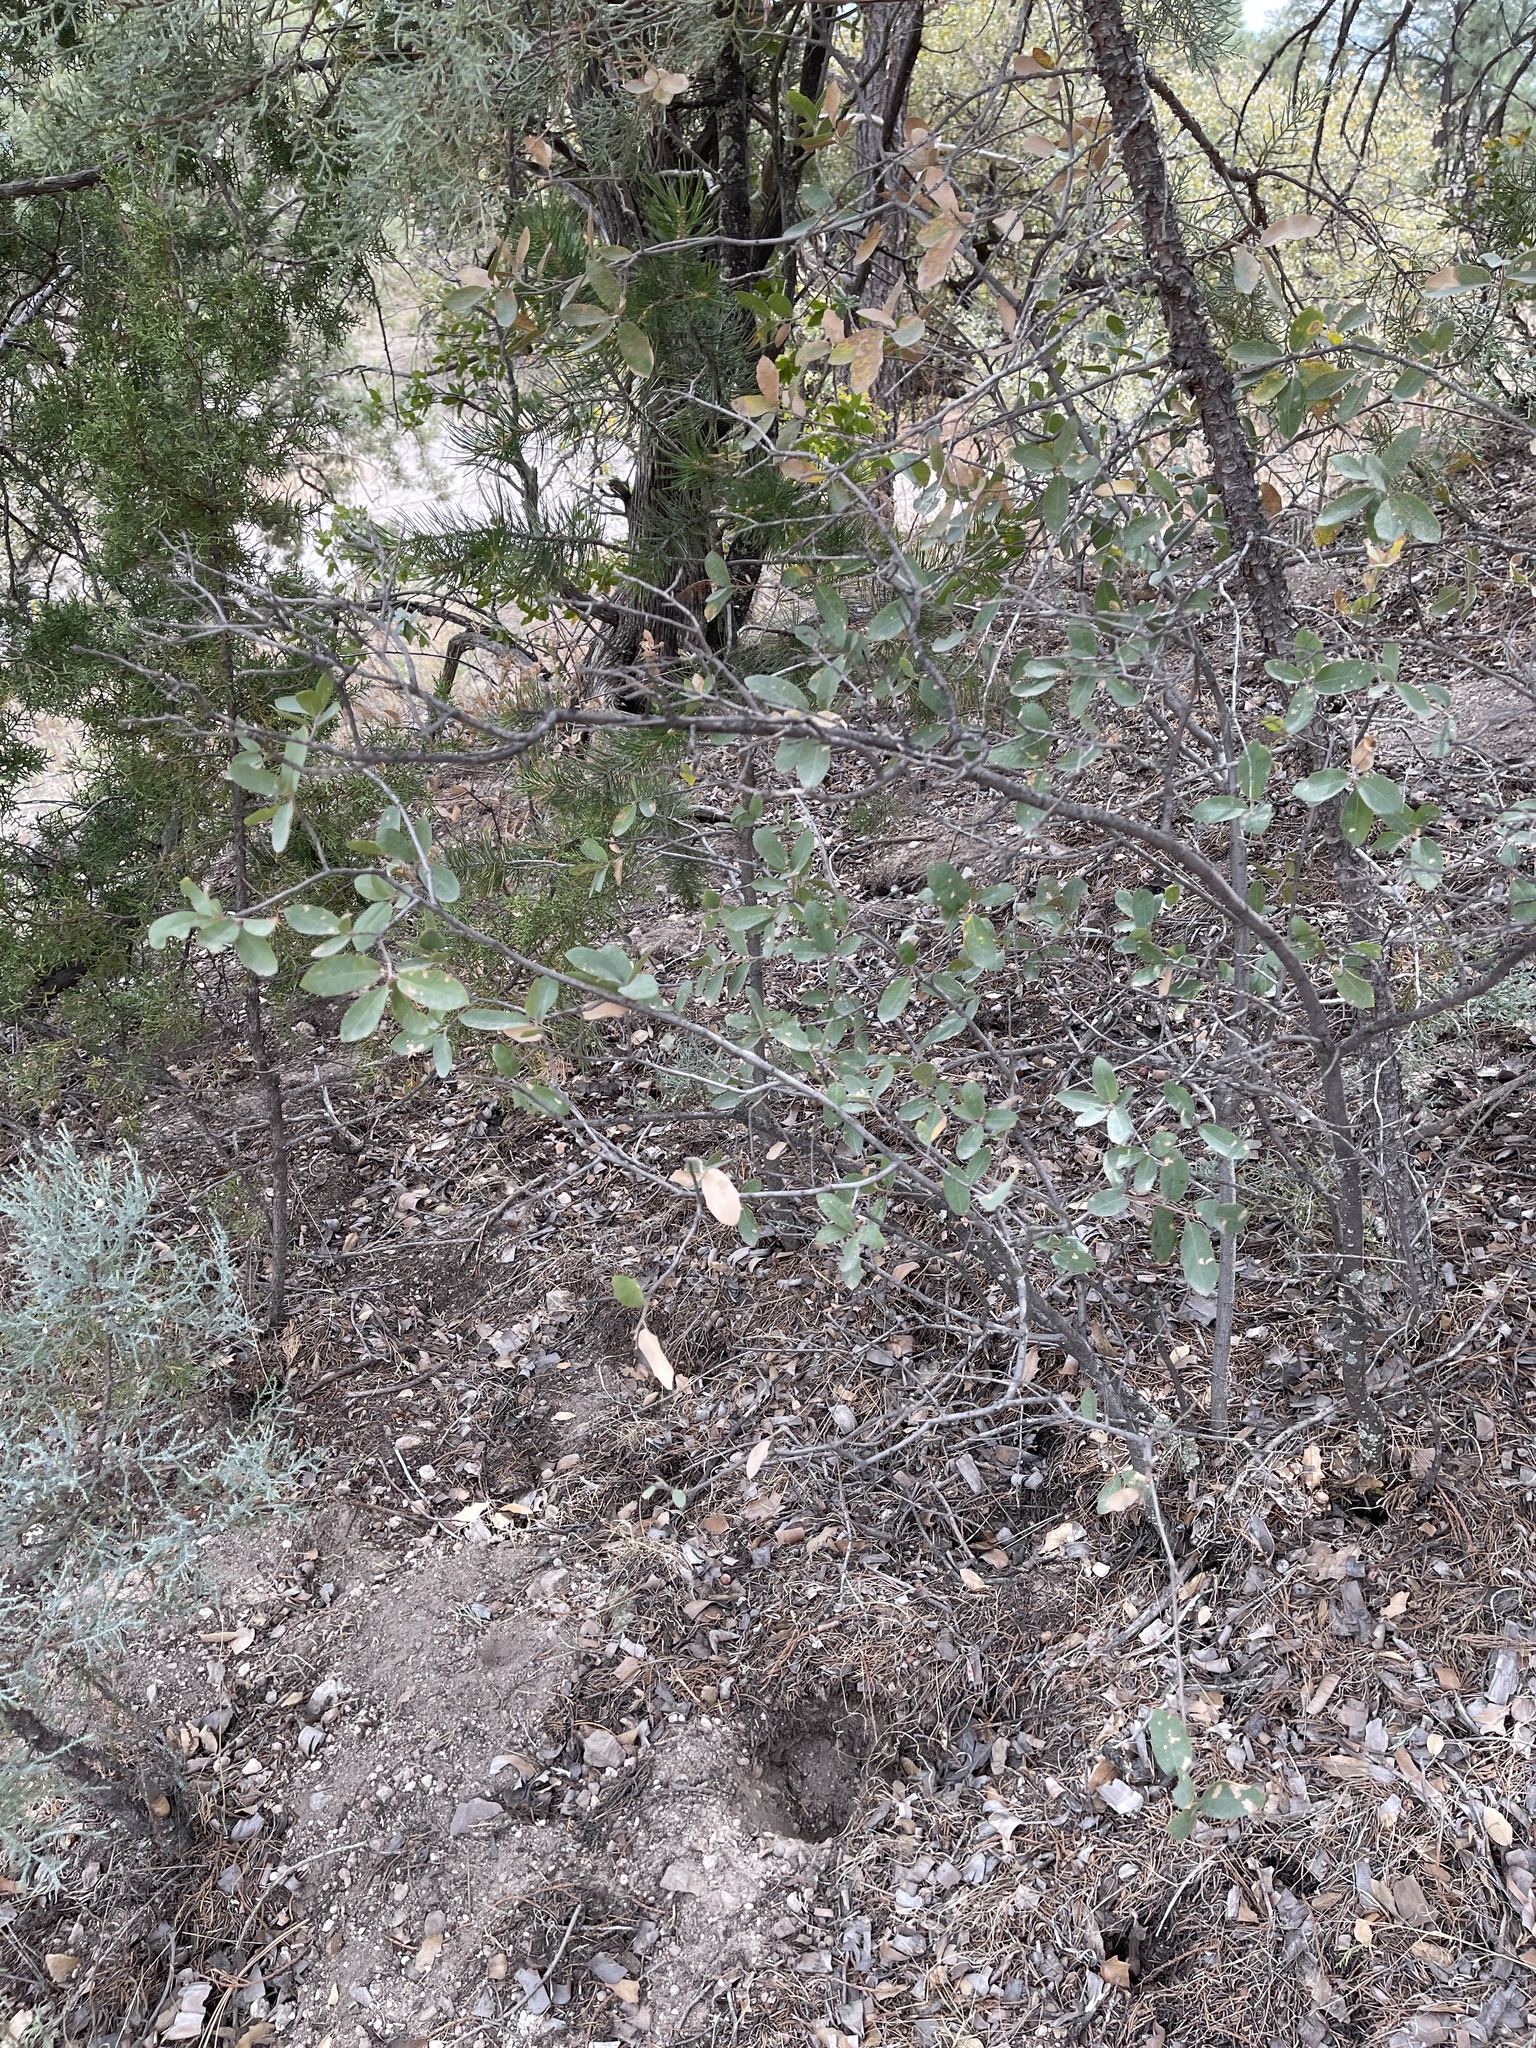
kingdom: Plantae
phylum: Tracheophyta
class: Magnoliopsida
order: Fagales
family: Fagaceae
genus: Quercus
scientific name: Quercus grisea
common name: Gray oak
